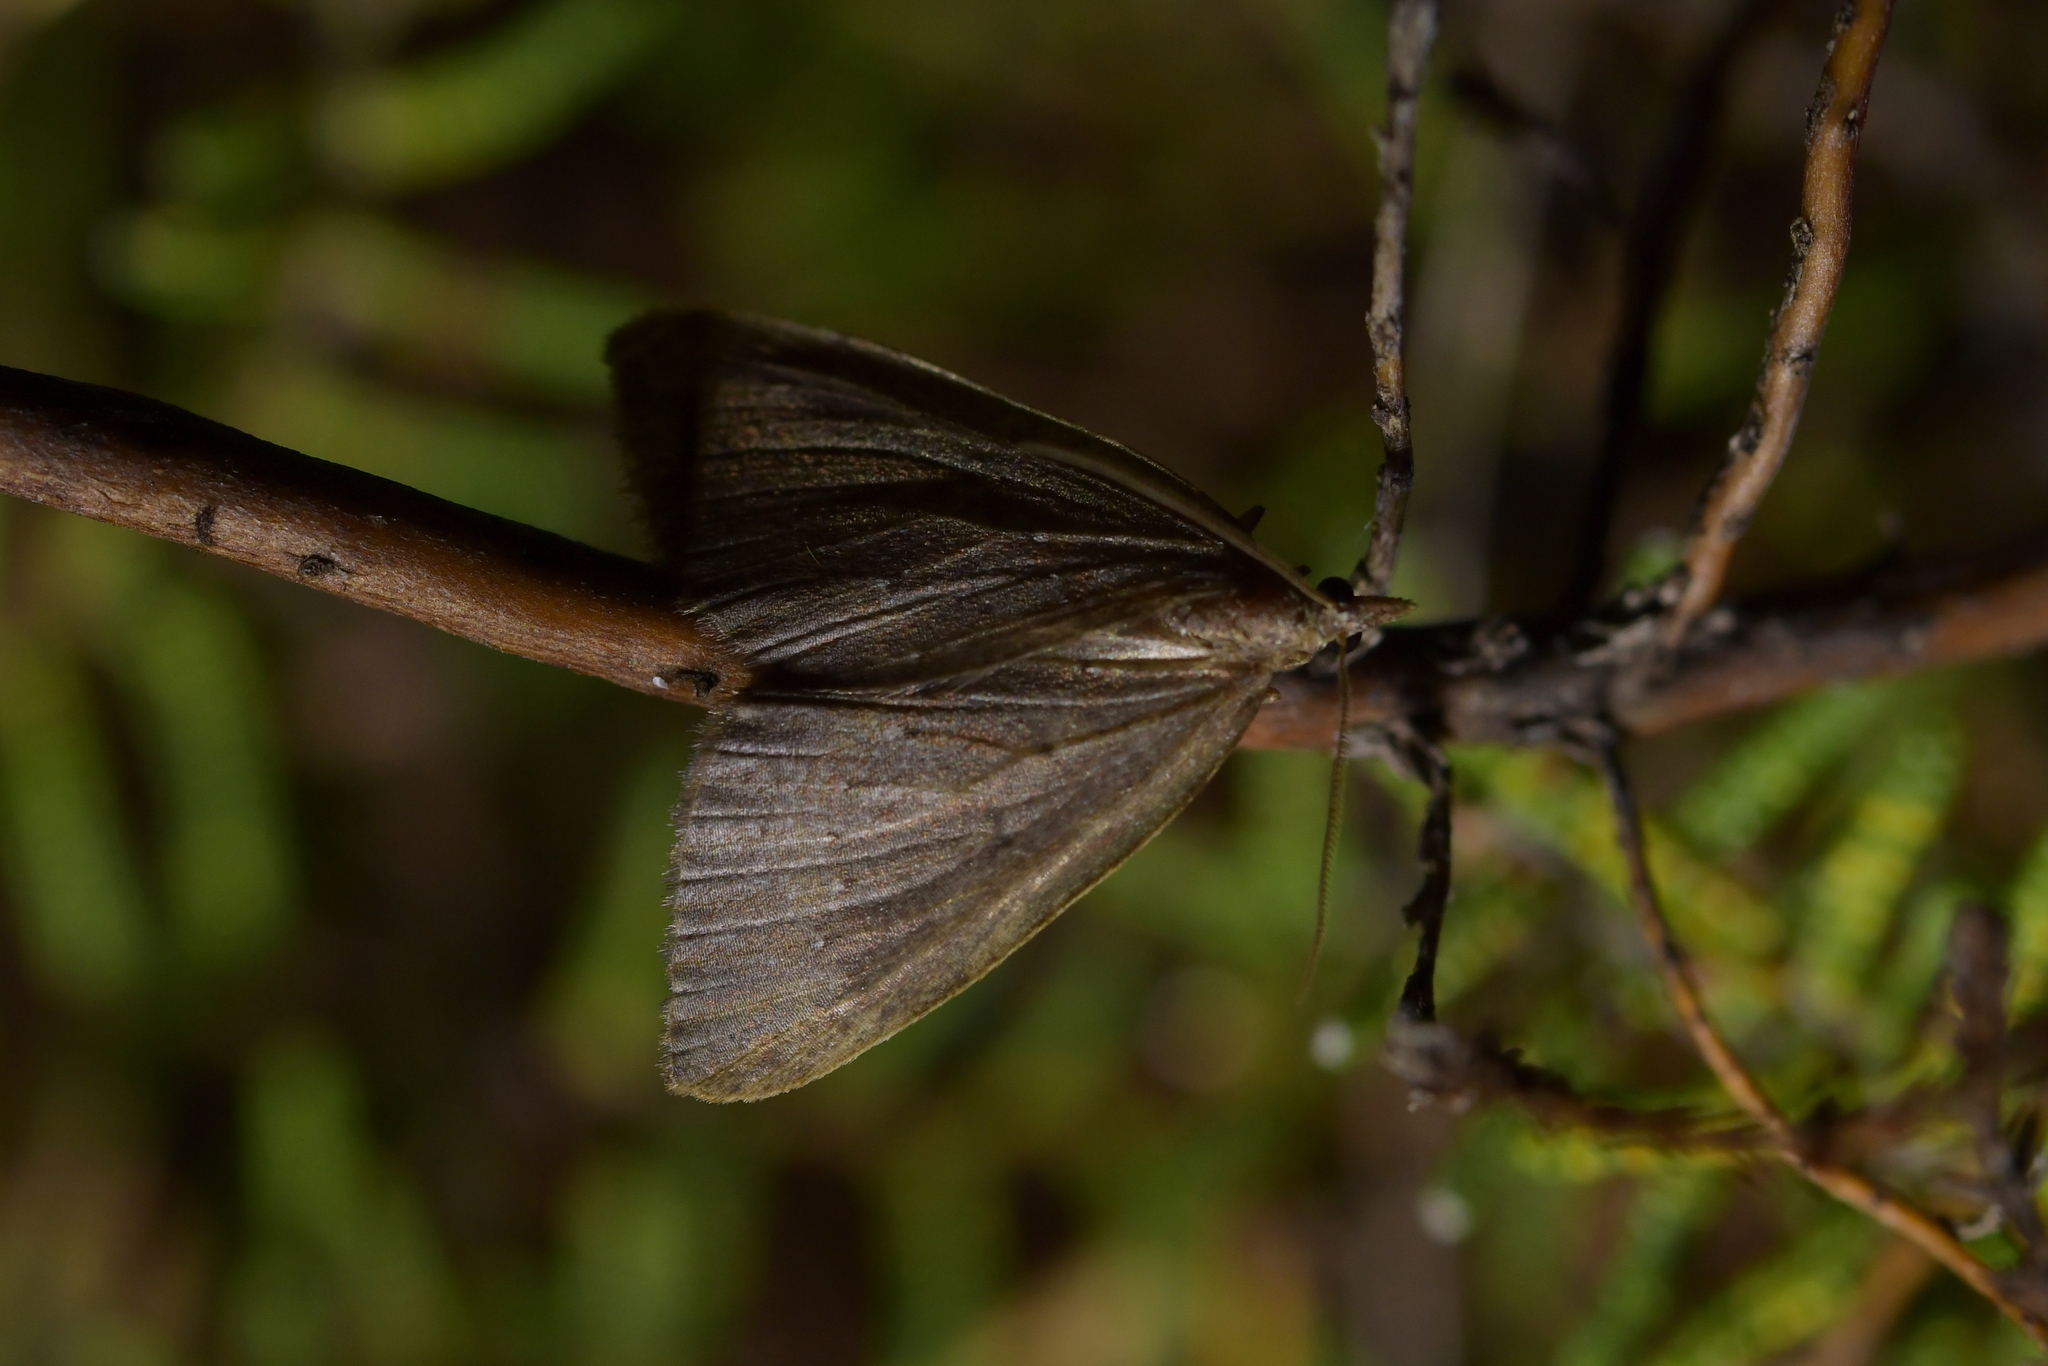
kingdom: Animalia
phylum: Arthropoda
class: Insecta
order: Lepidoptera
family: Geometridae
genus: Xanthorhoe
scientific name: Xanthorhoe occulta
